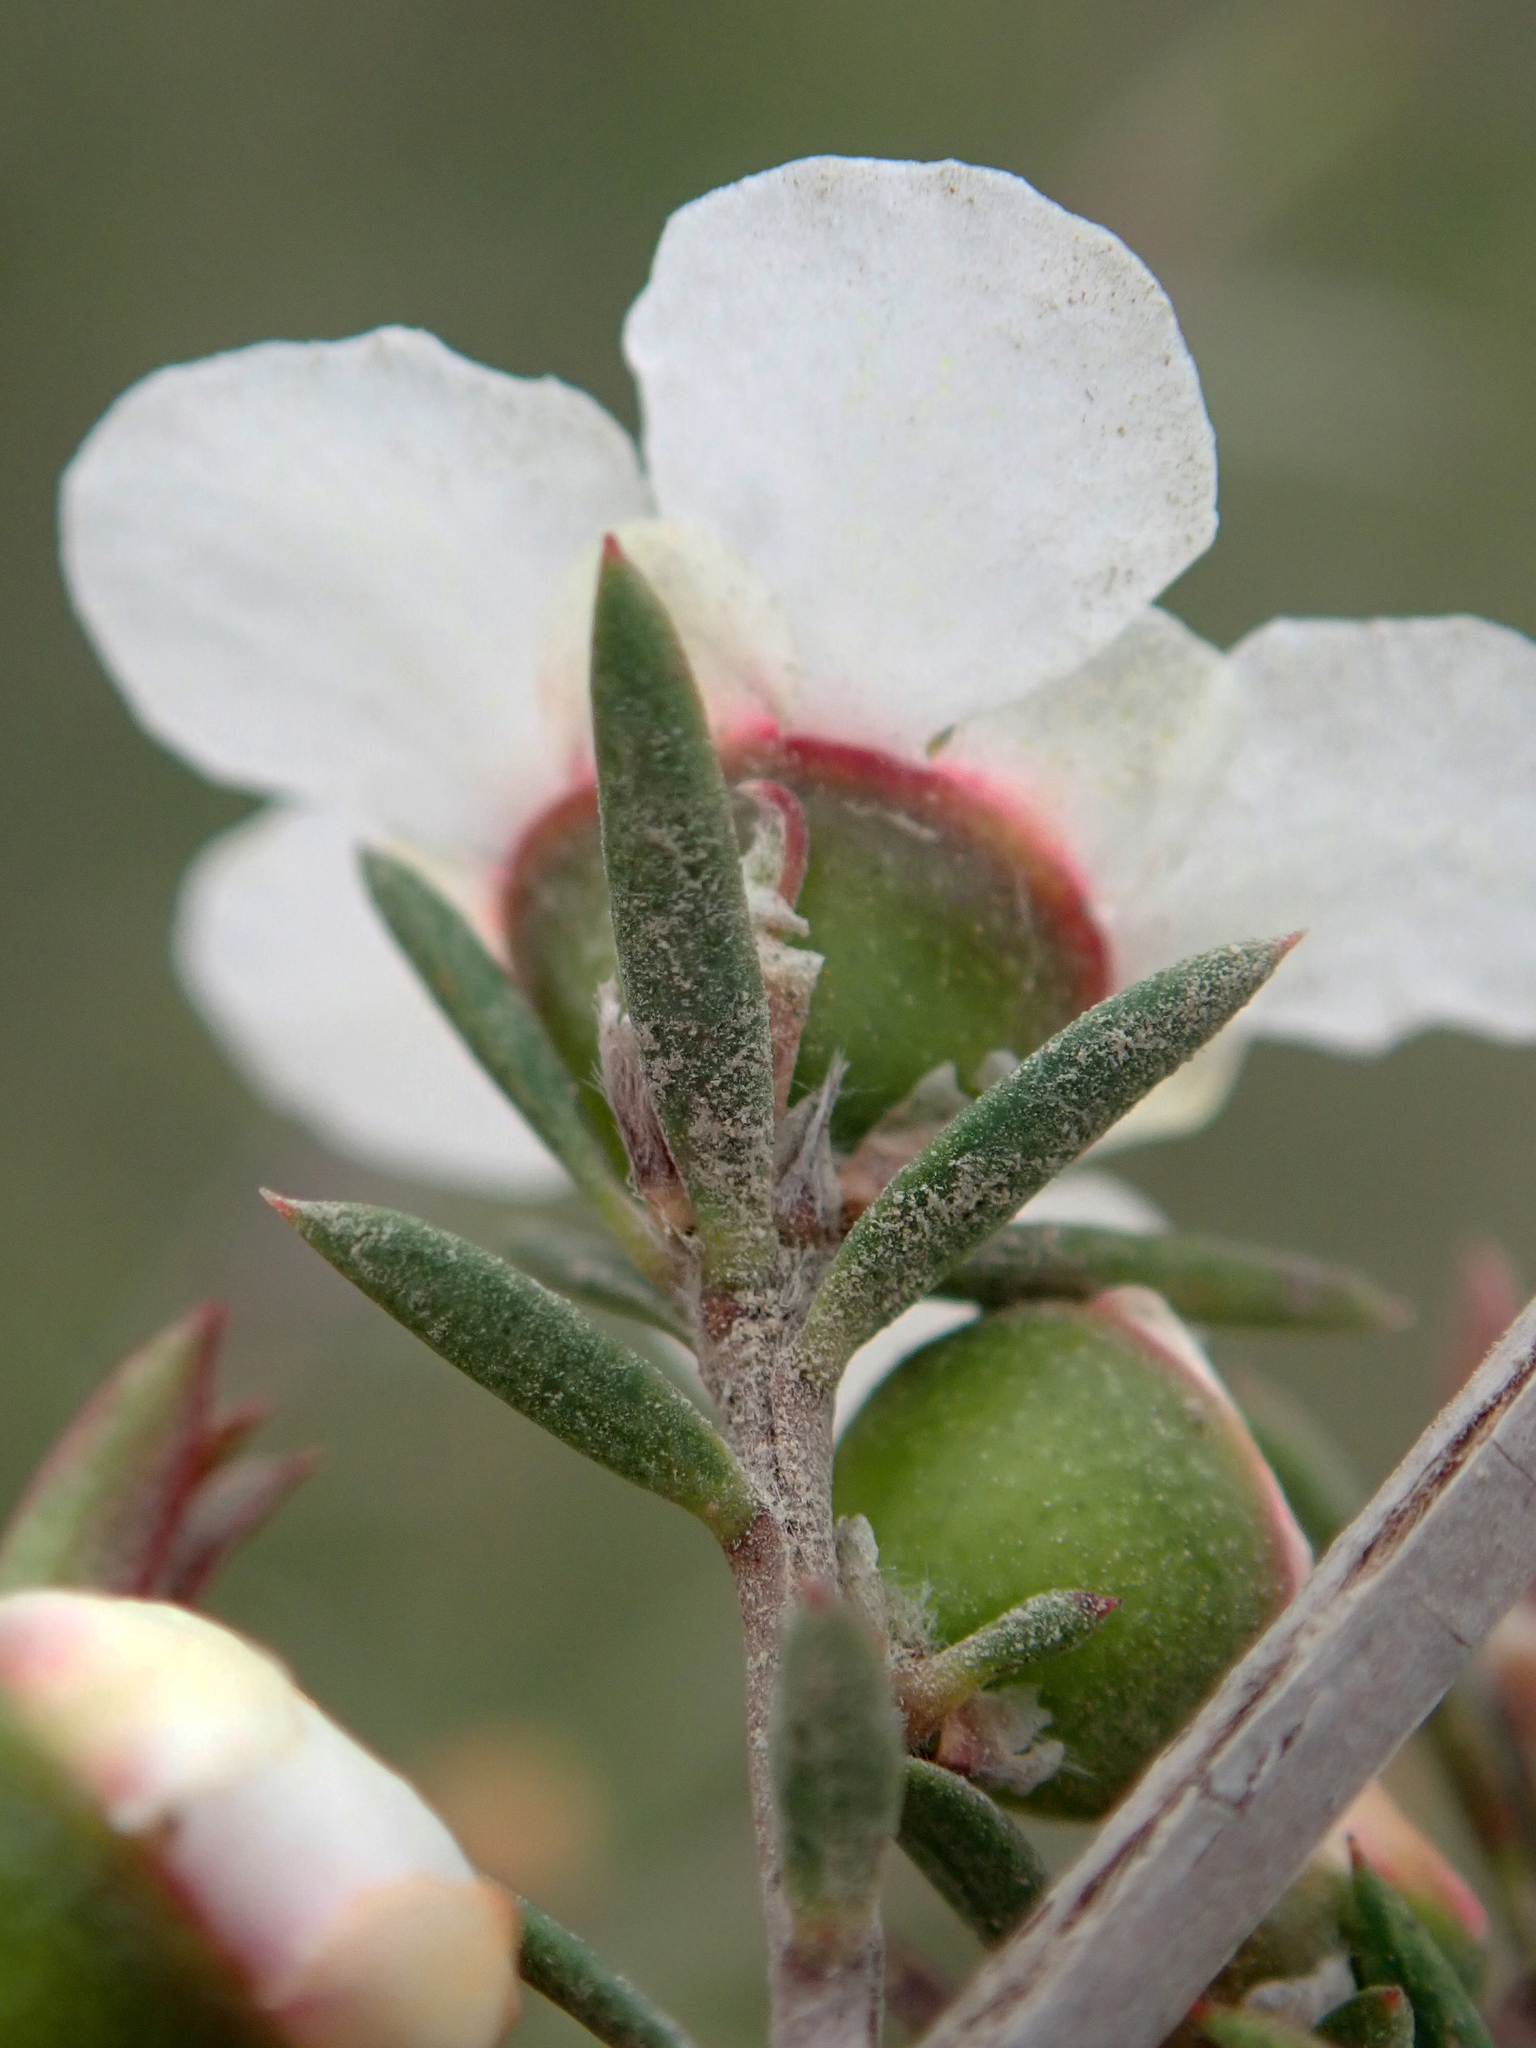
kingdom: Plantae
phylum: Tracheophyta
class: Magnoliopsida
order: Myrtales
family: Myrtaceae
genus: Leptospermum
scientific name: Leptospermum repo
